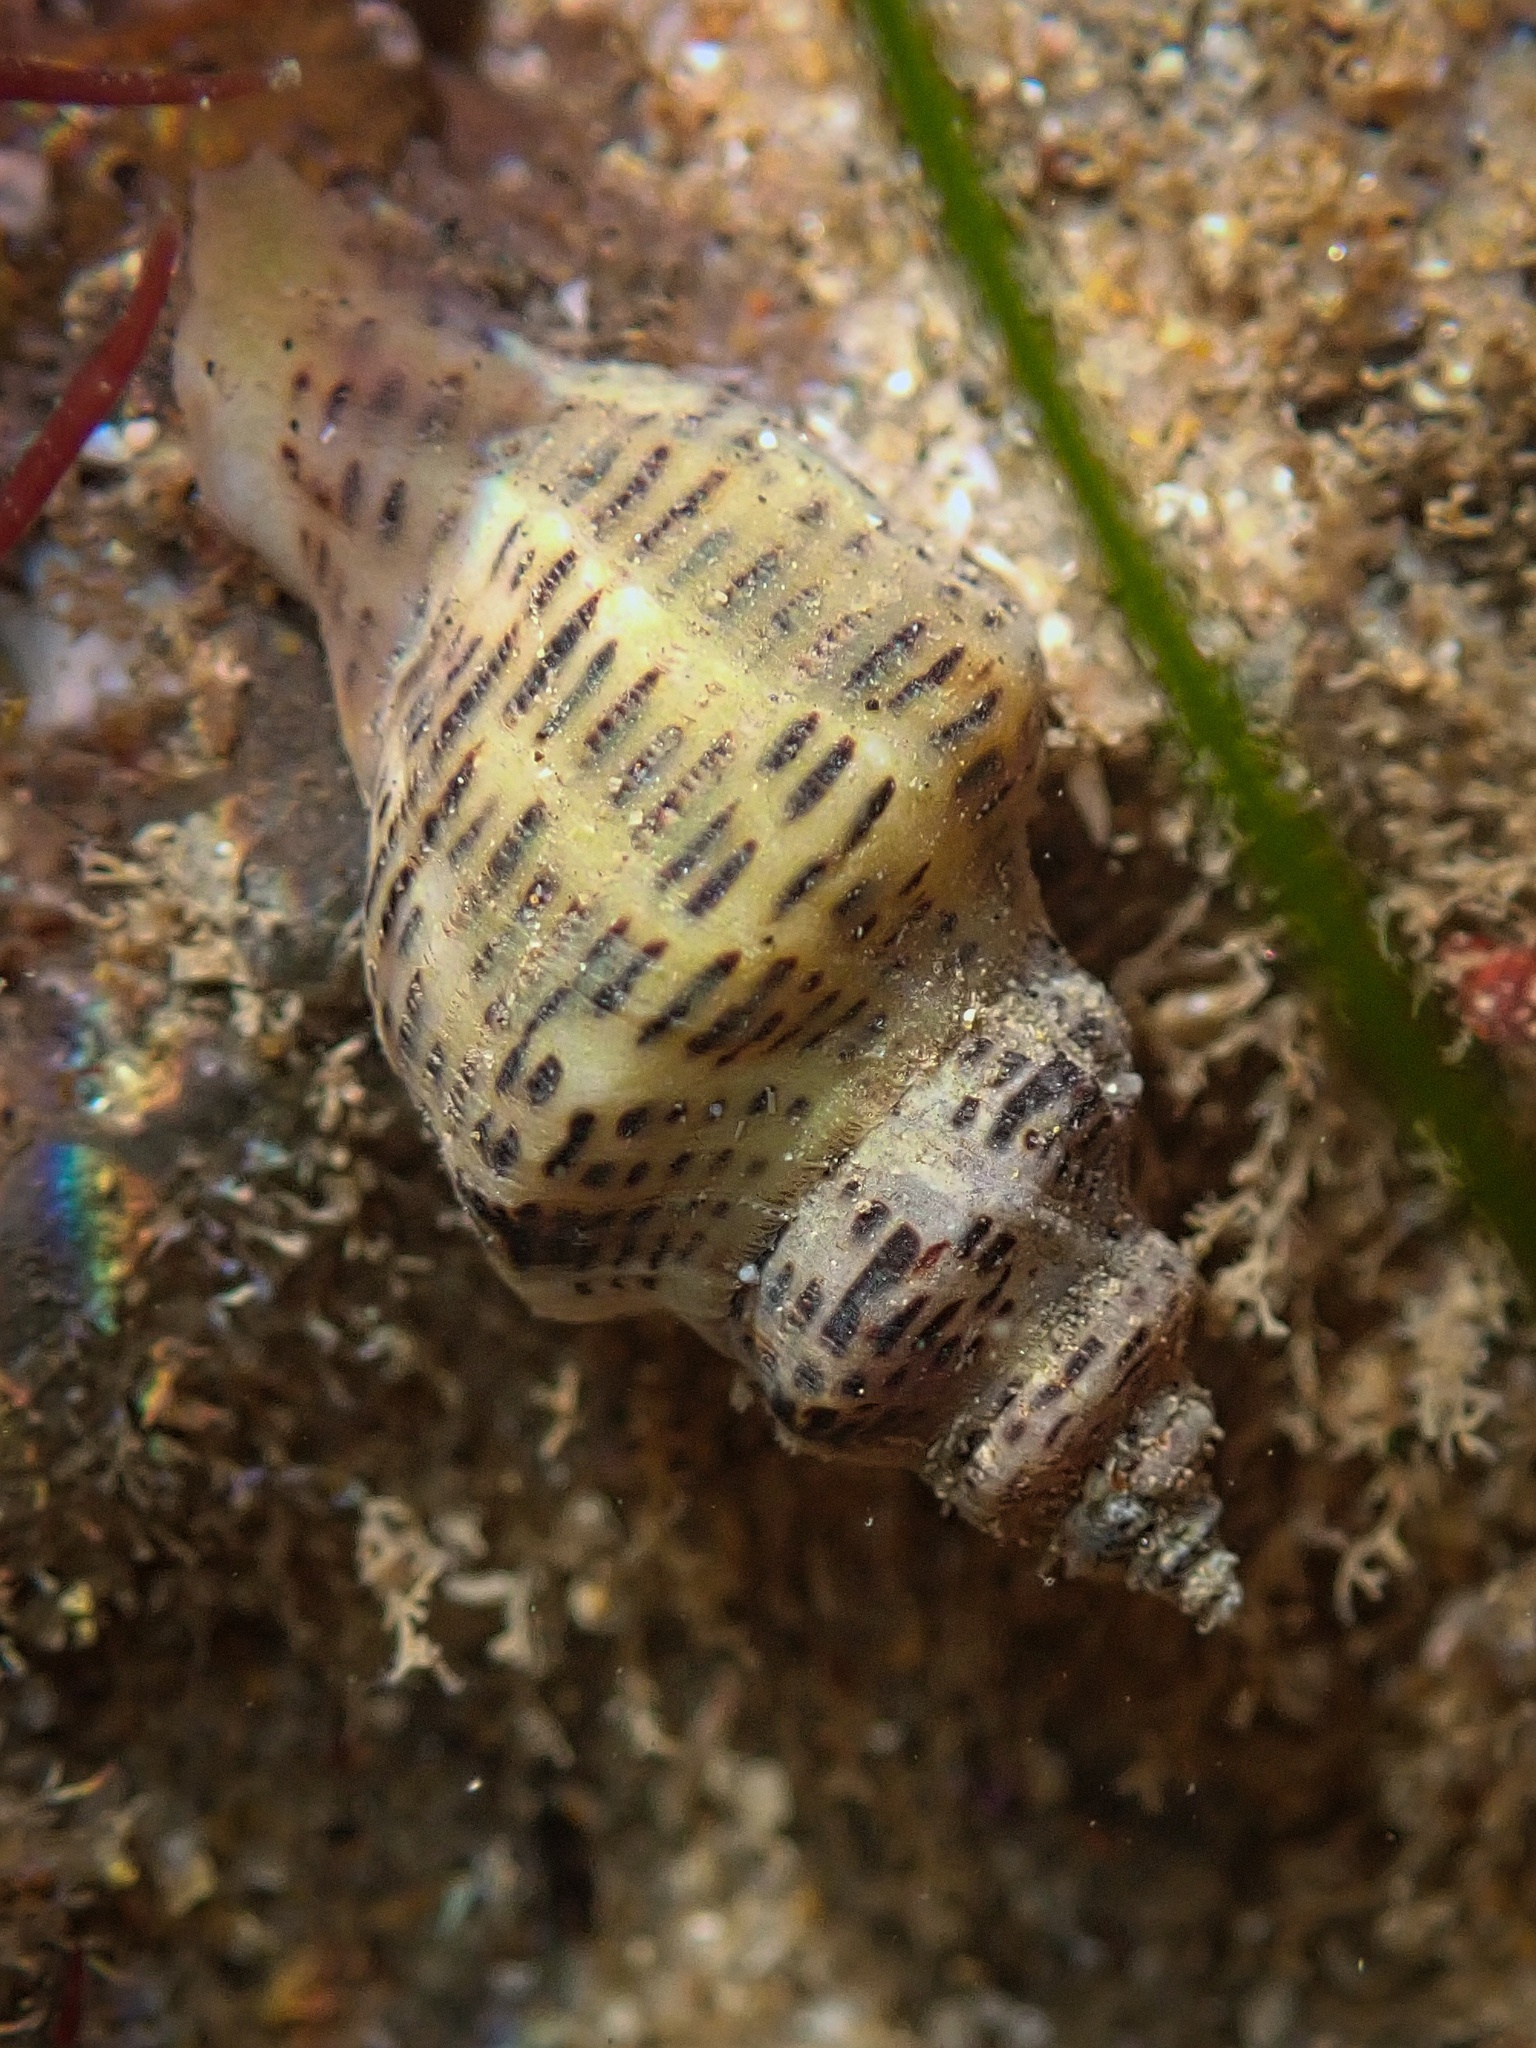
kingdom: Animalia
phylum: Mollusca
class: Gastropoda
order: Neogastropoda
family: Muricidae
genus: Acanthinucella
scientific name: Acanthinucella spirata
